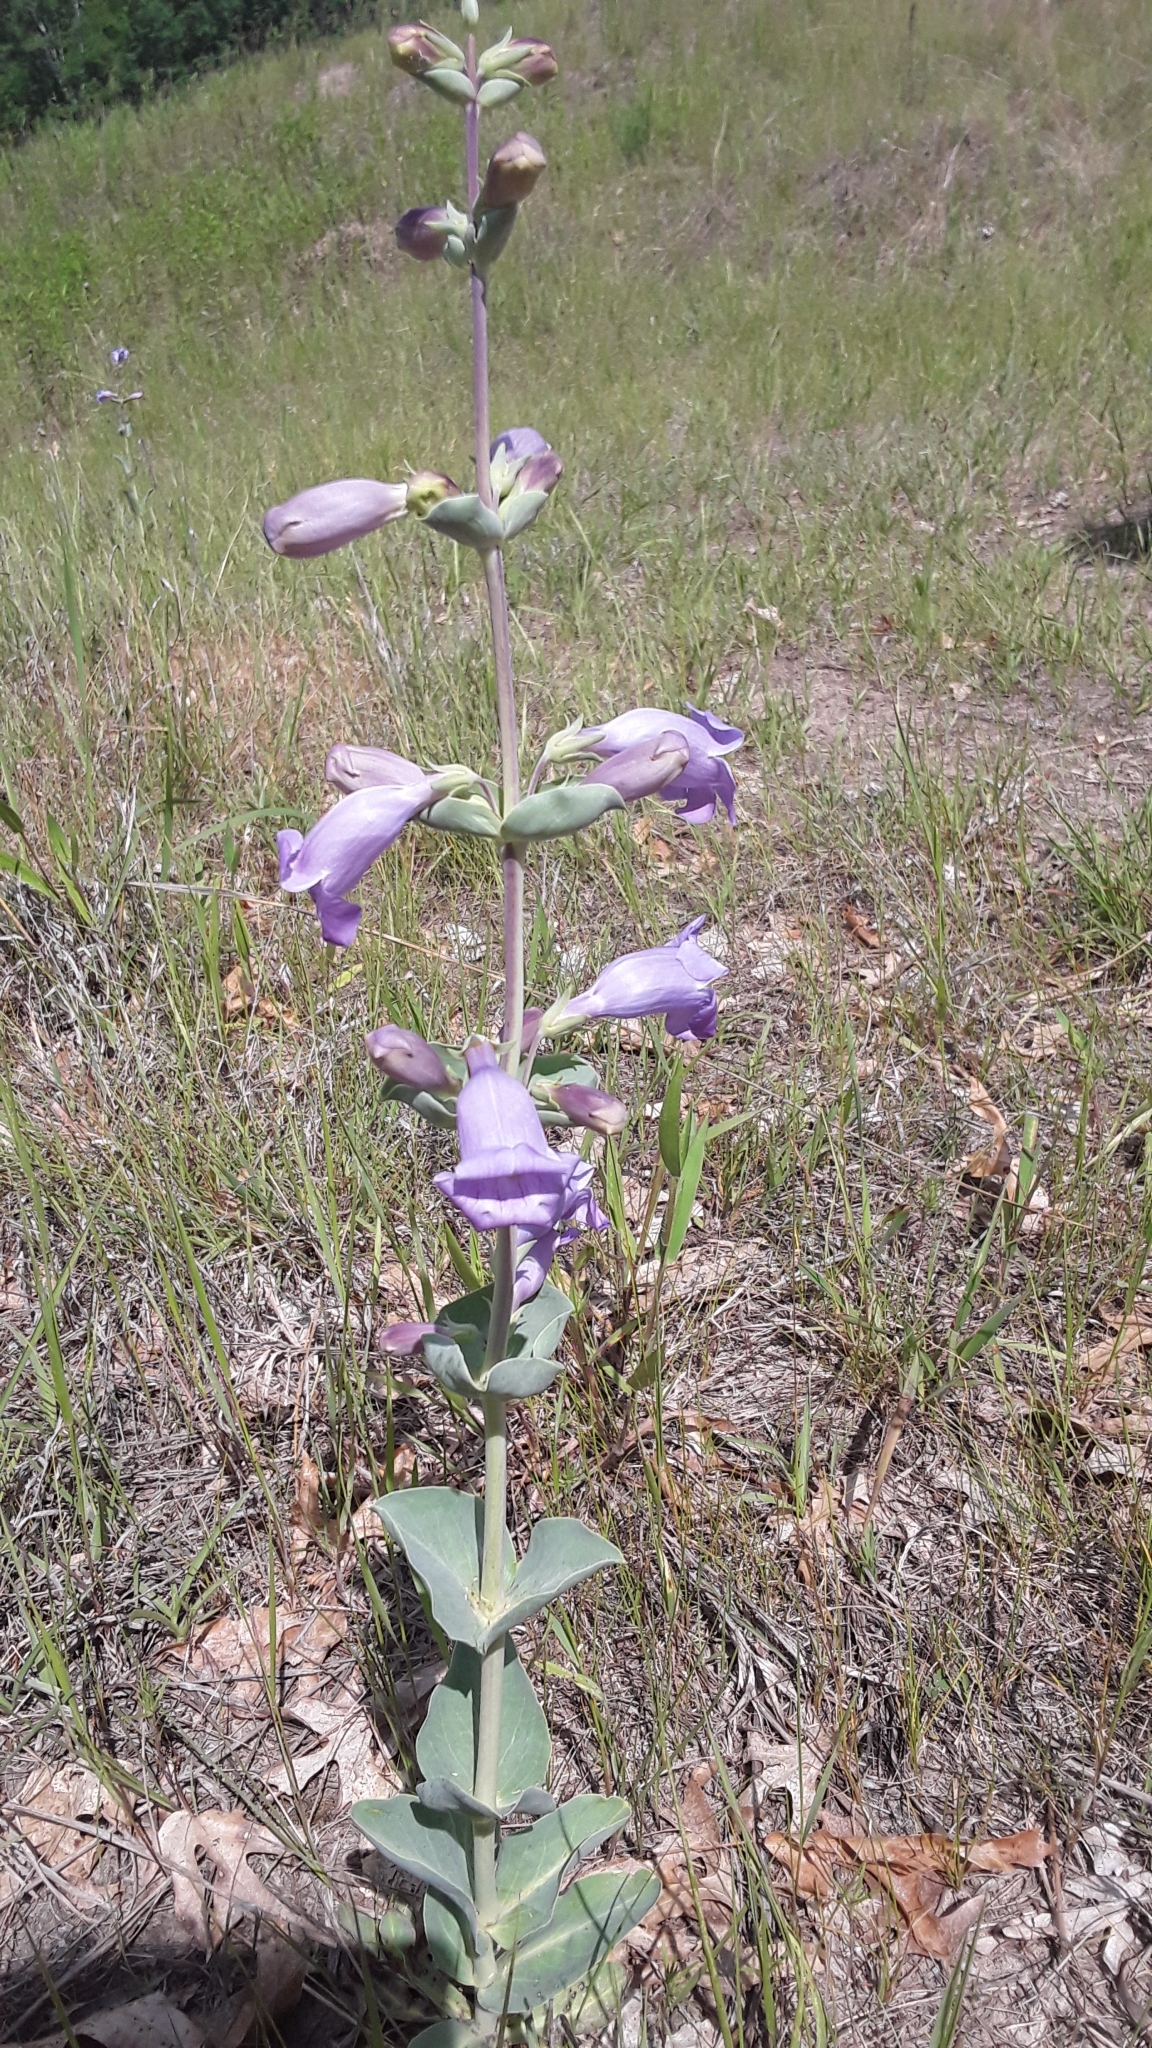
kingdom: Plantae
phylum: Tracheophyta
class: Magnoliopsida
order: Lamiales
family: Plantaginaceae
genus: Penstemon
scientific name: Penstemon
